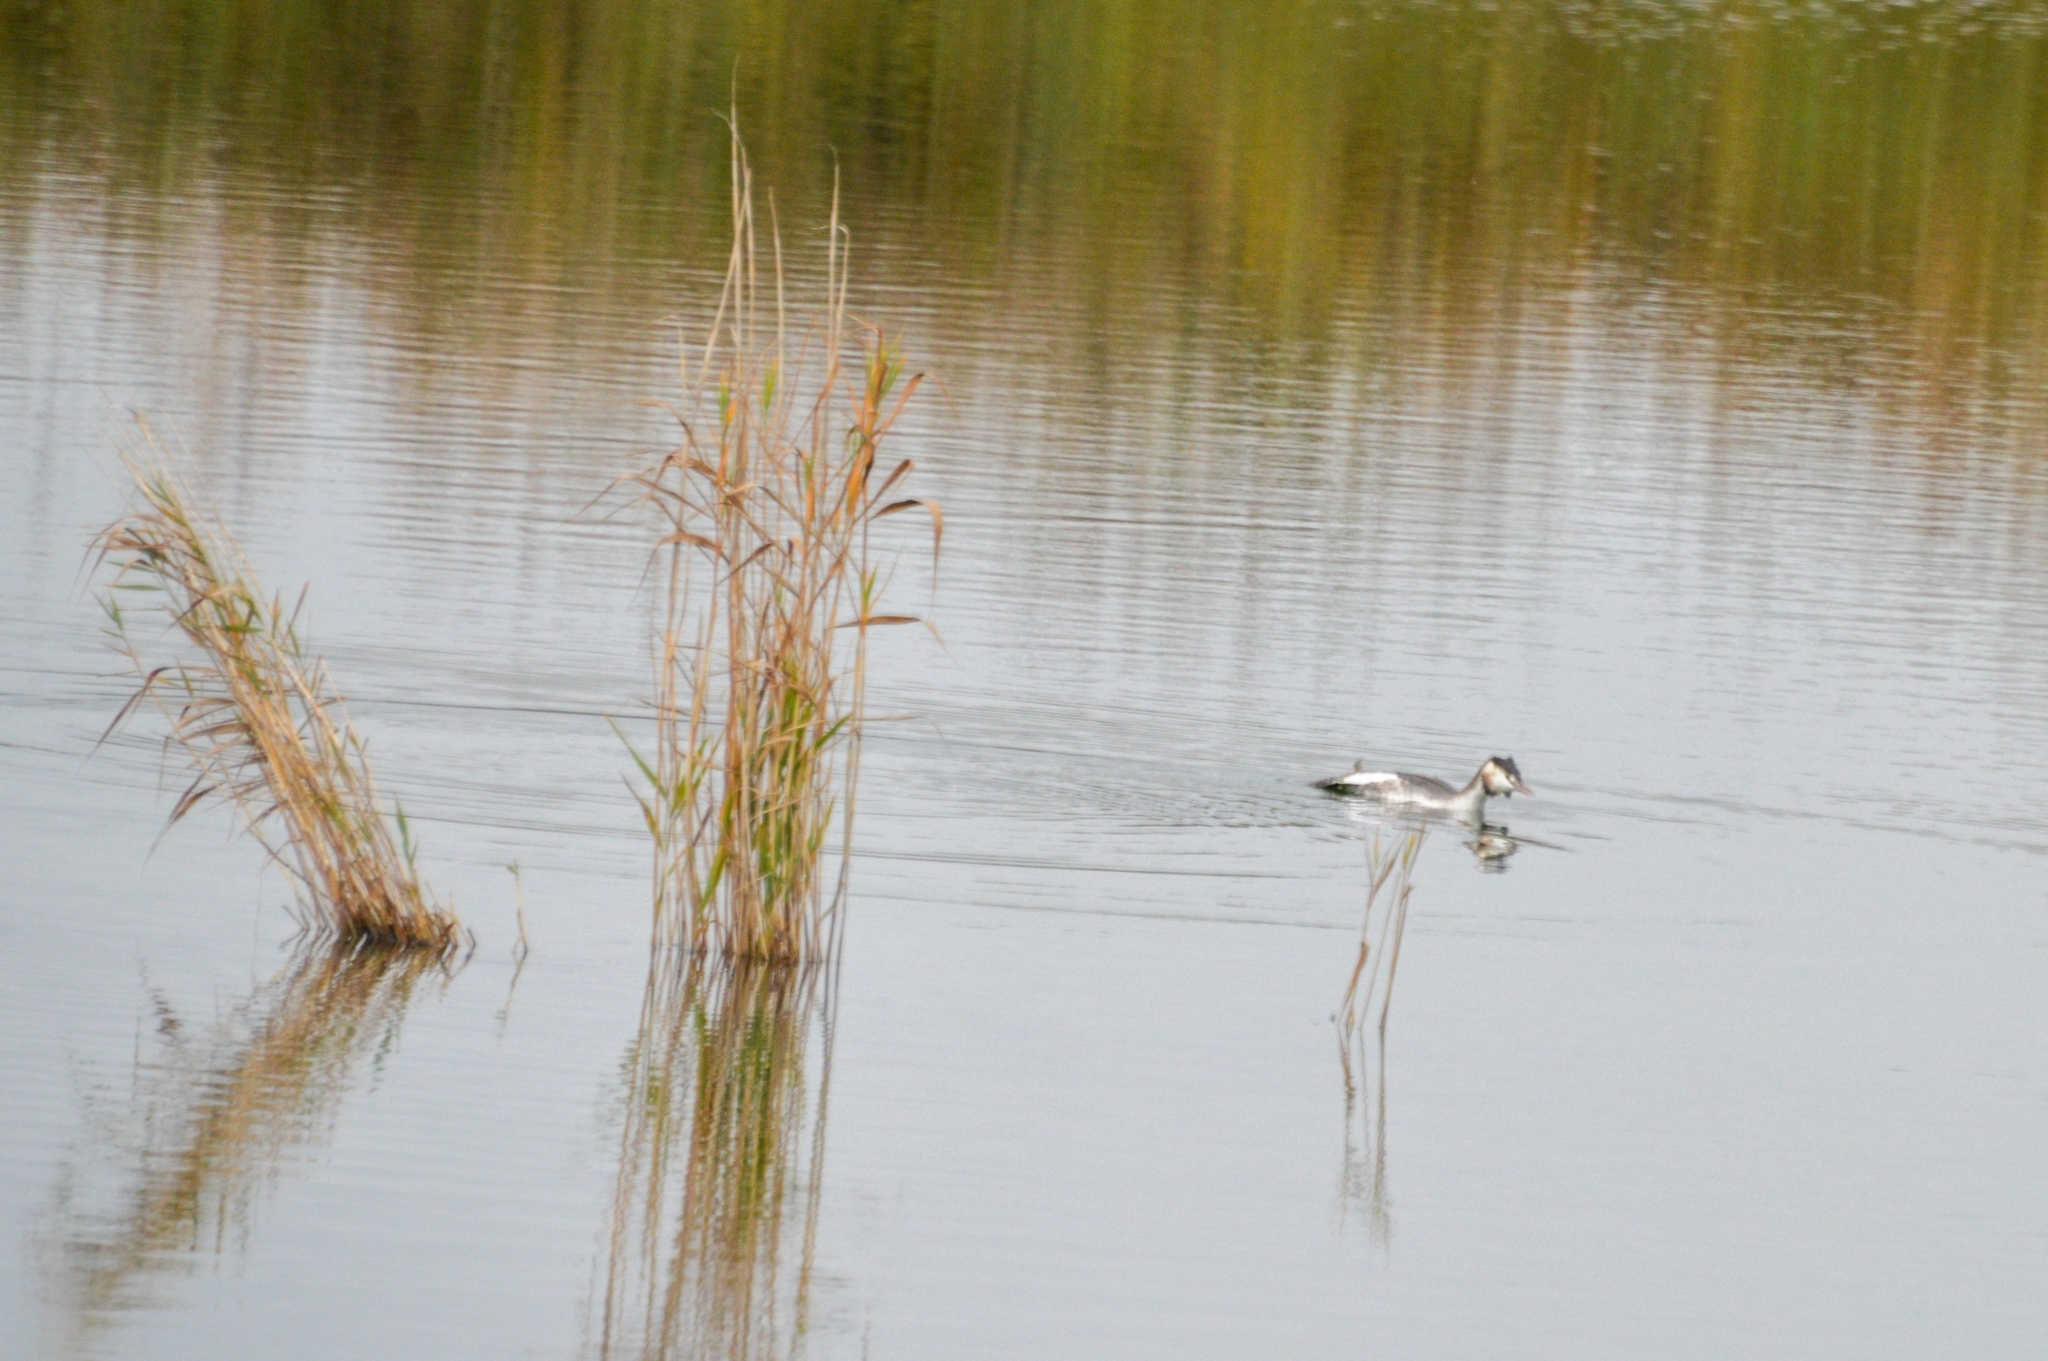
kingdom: Animalia
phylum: Chordata
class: Aves
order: Podicipediformes
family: Podicipedidae
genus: Podiceps
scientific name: Podiceps cristatus
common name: Great crested grebe
